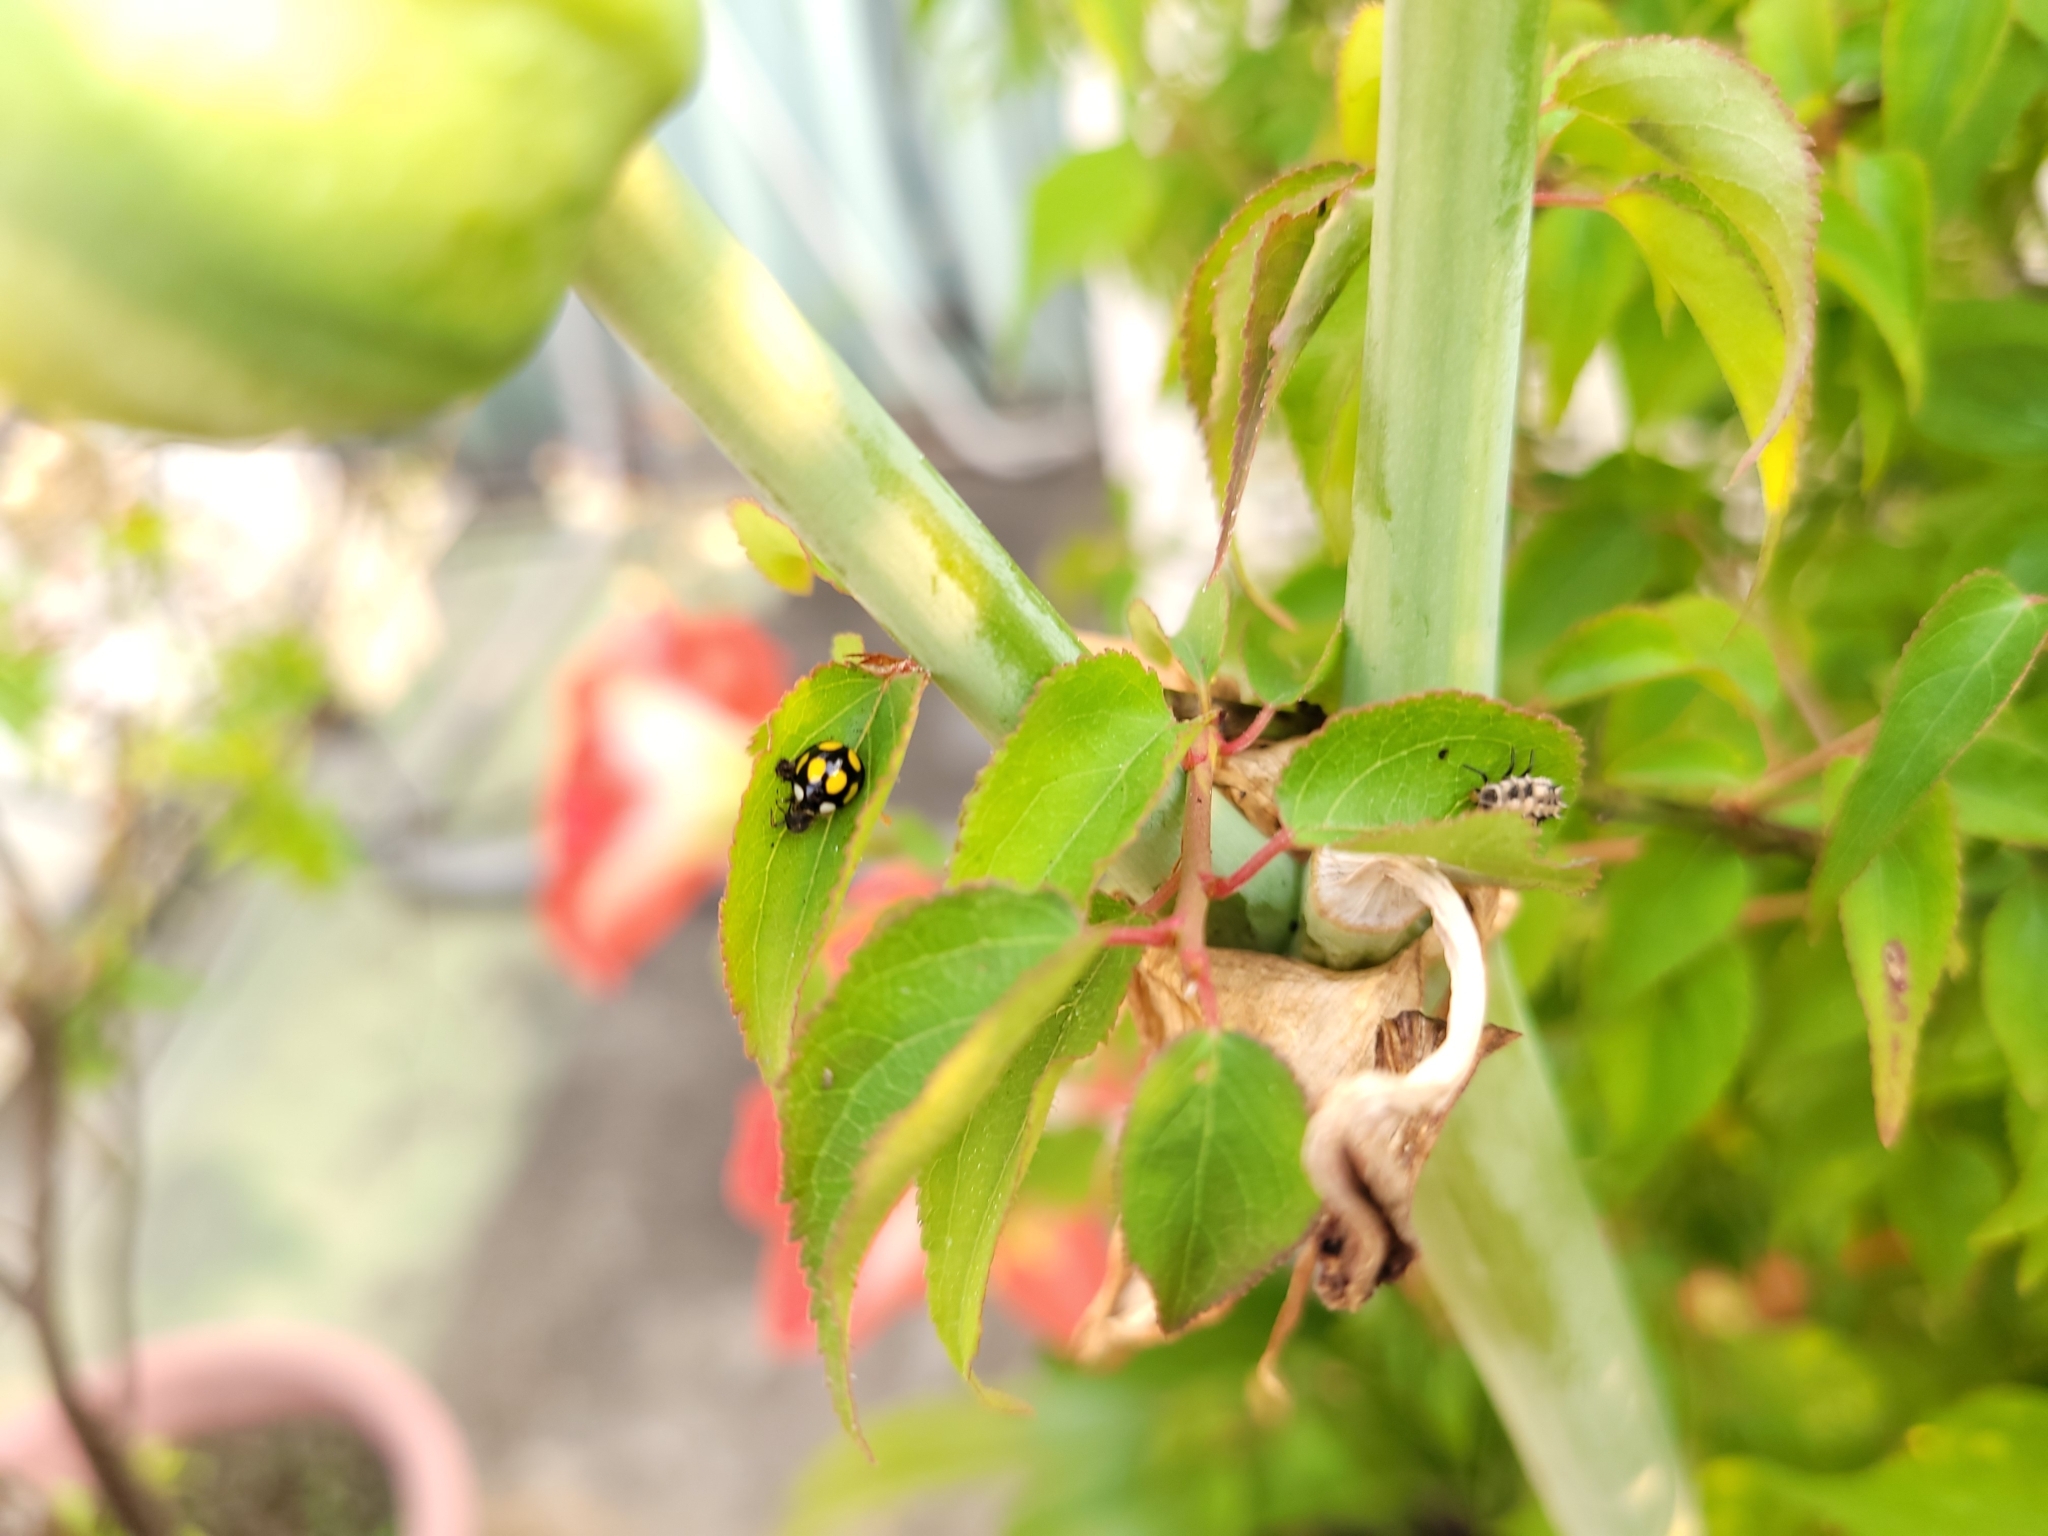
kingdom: Animalia
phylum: Arthropoda
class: Insecta
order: Coleoptera
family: Coccinellidae
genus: Oenopia
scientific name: Oenopia formosana
